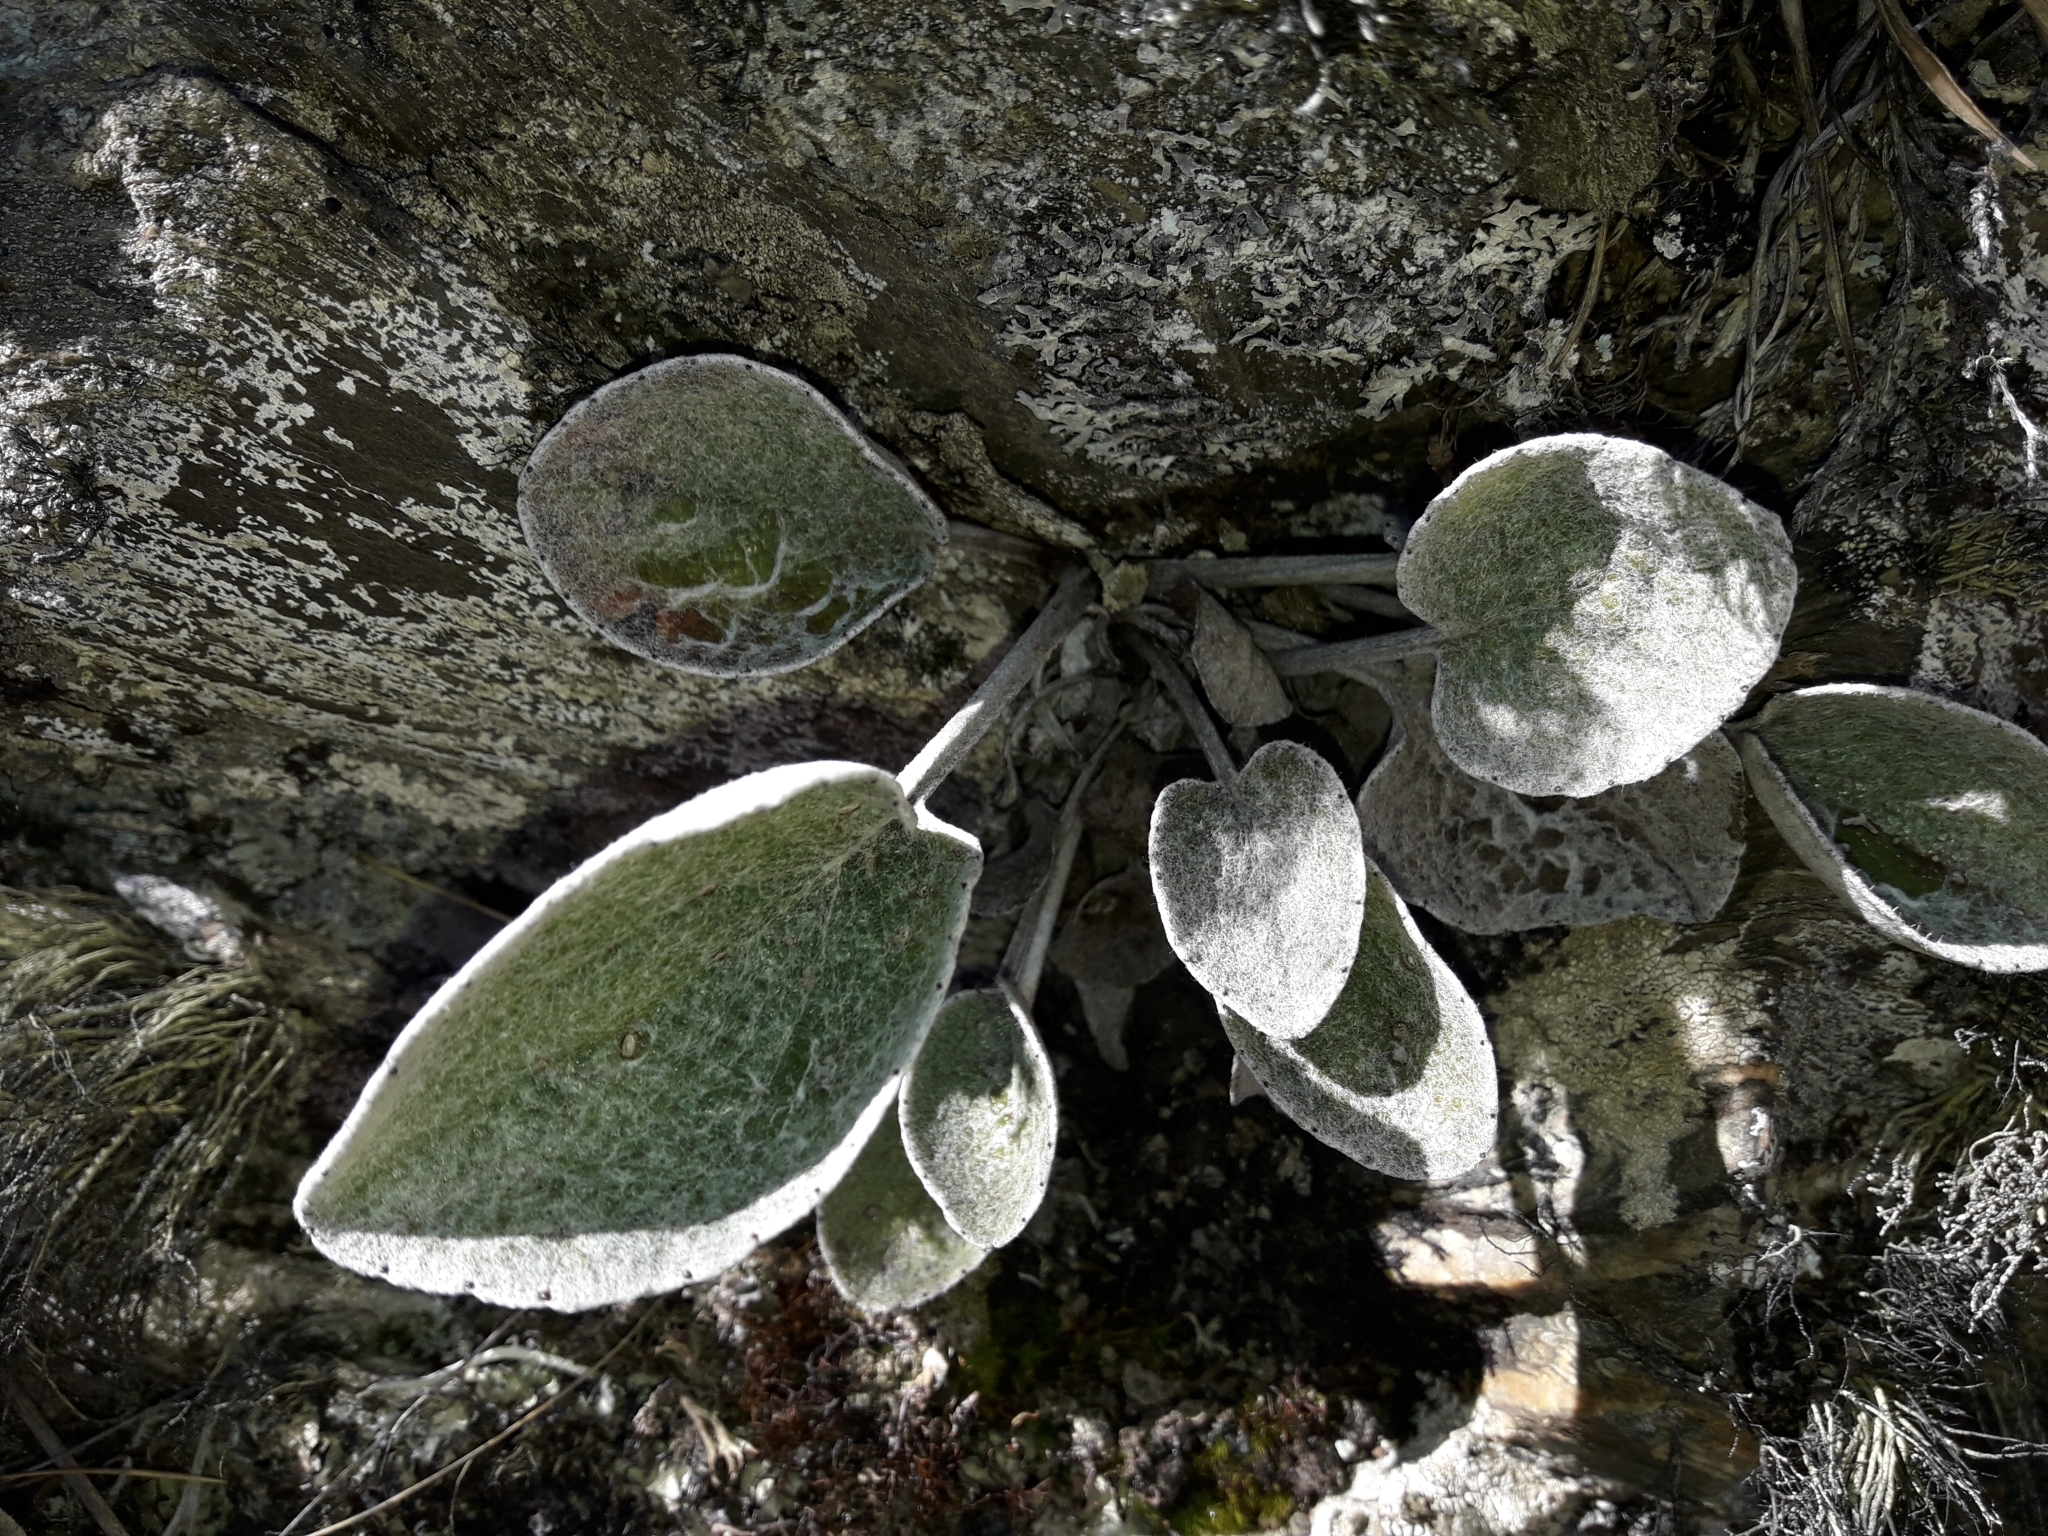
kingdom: Plantae
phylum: Tracheophyta
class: Magnoliopsida
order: Asterales
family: Asteraceae
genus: Brachyglottis
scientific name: Brachyglottis haastii
